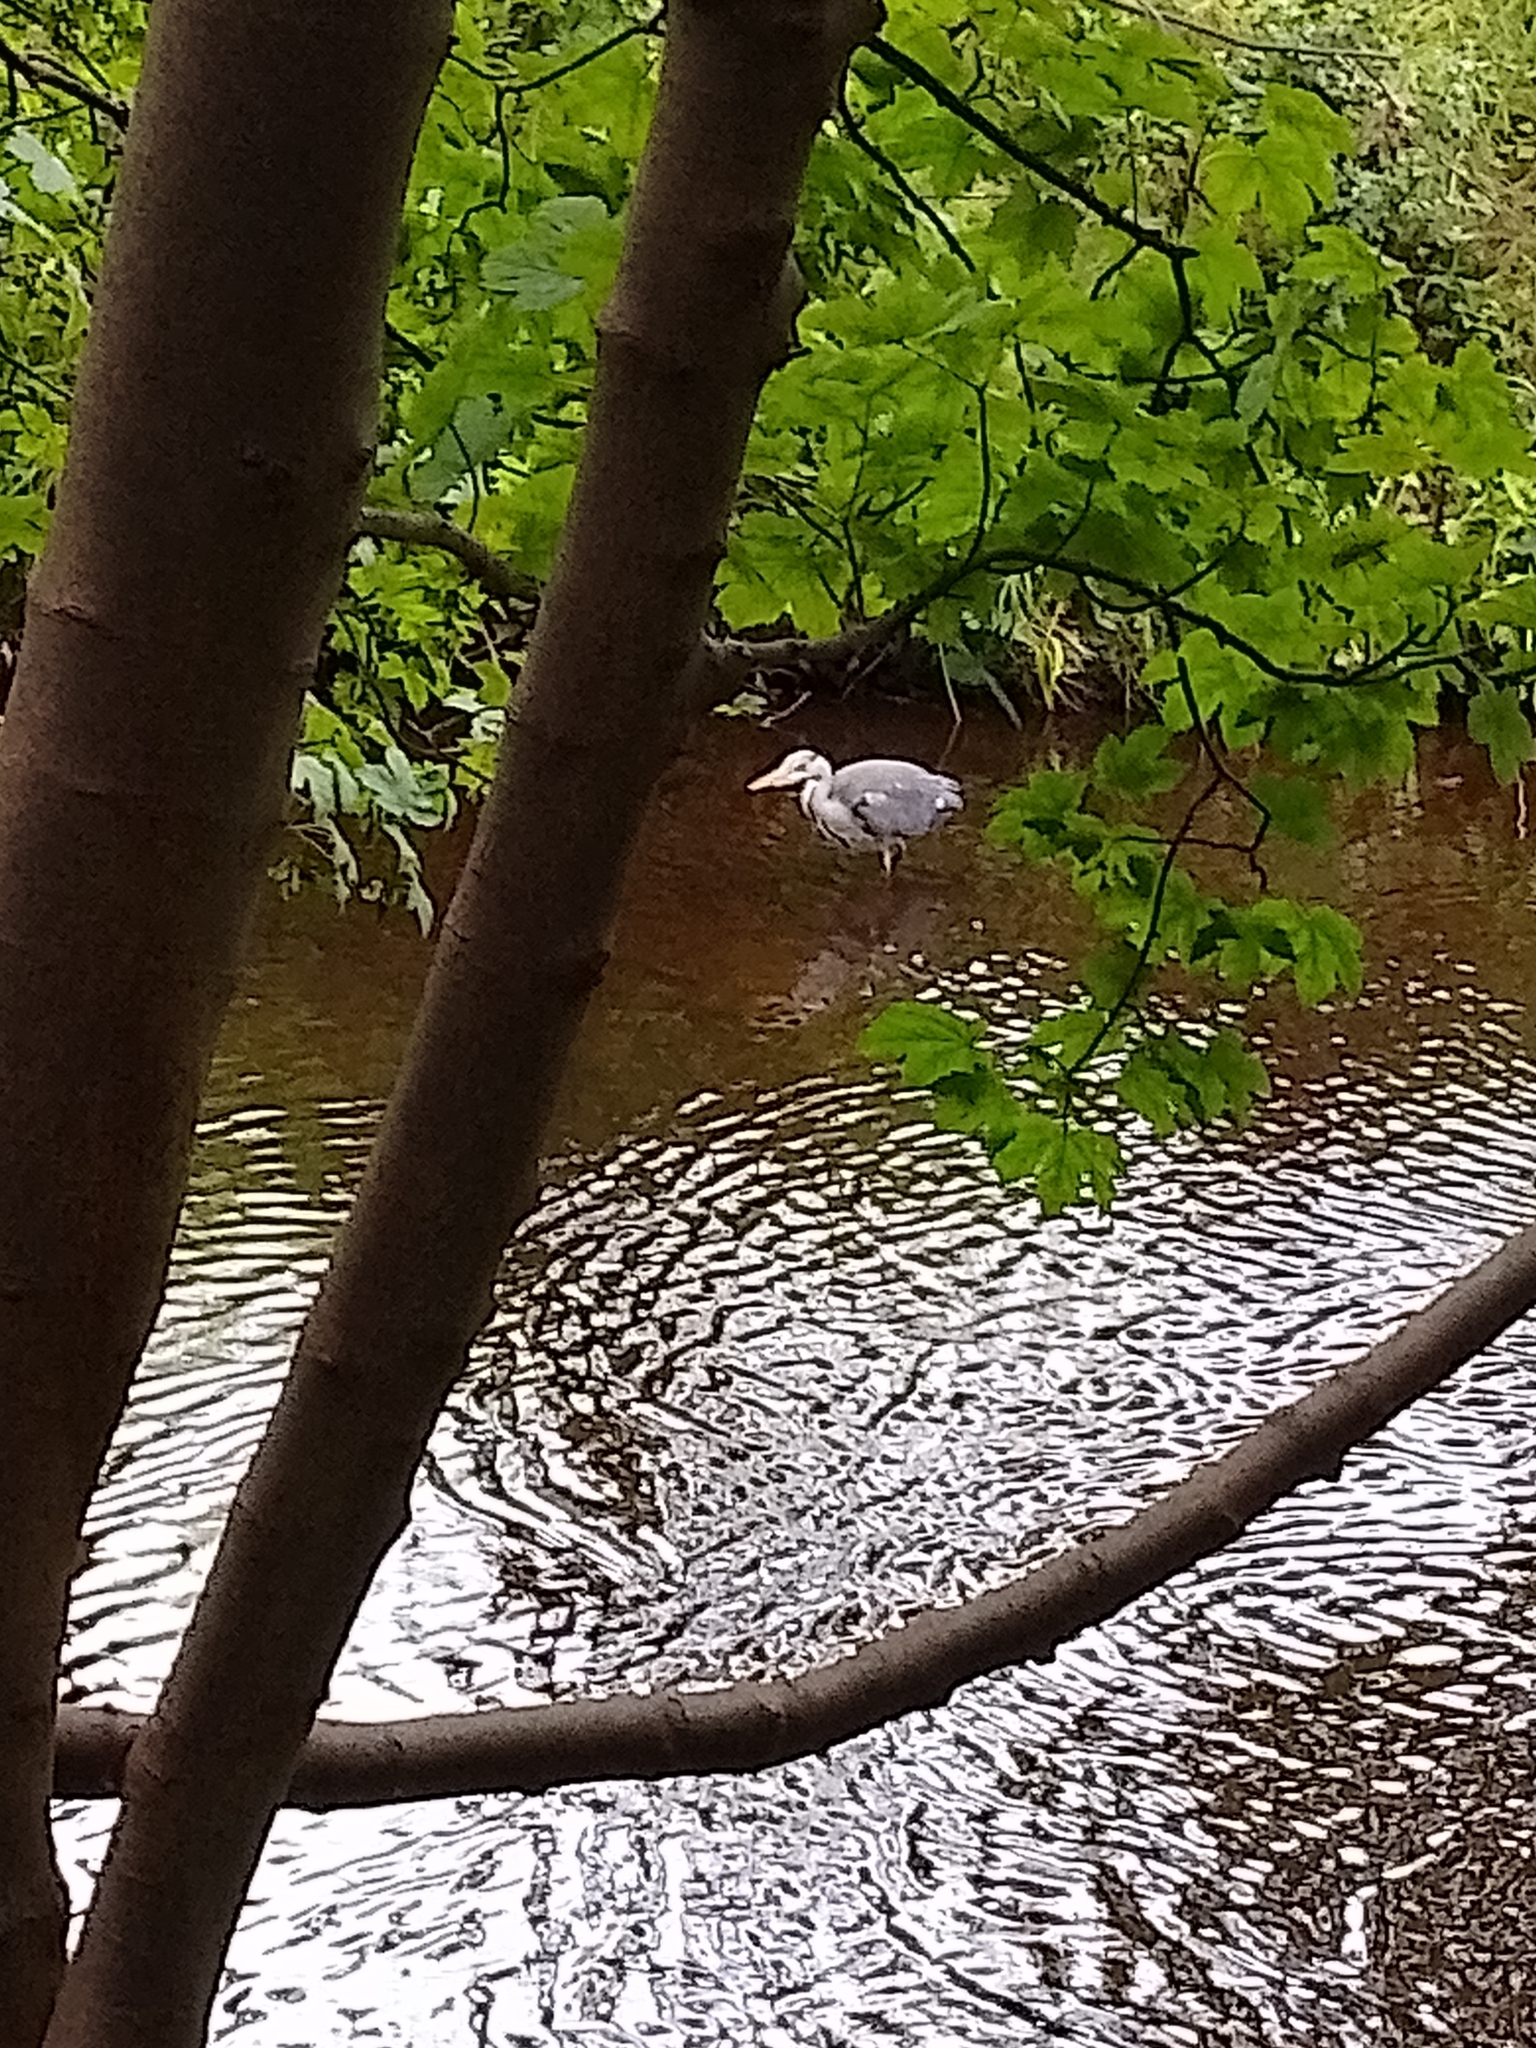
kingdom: Animalia
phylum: Chordata
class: Aves
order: Pelecaniformes
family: Ardeidae
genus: Ardea
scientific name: Ardea cinerea
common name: Grey heron
